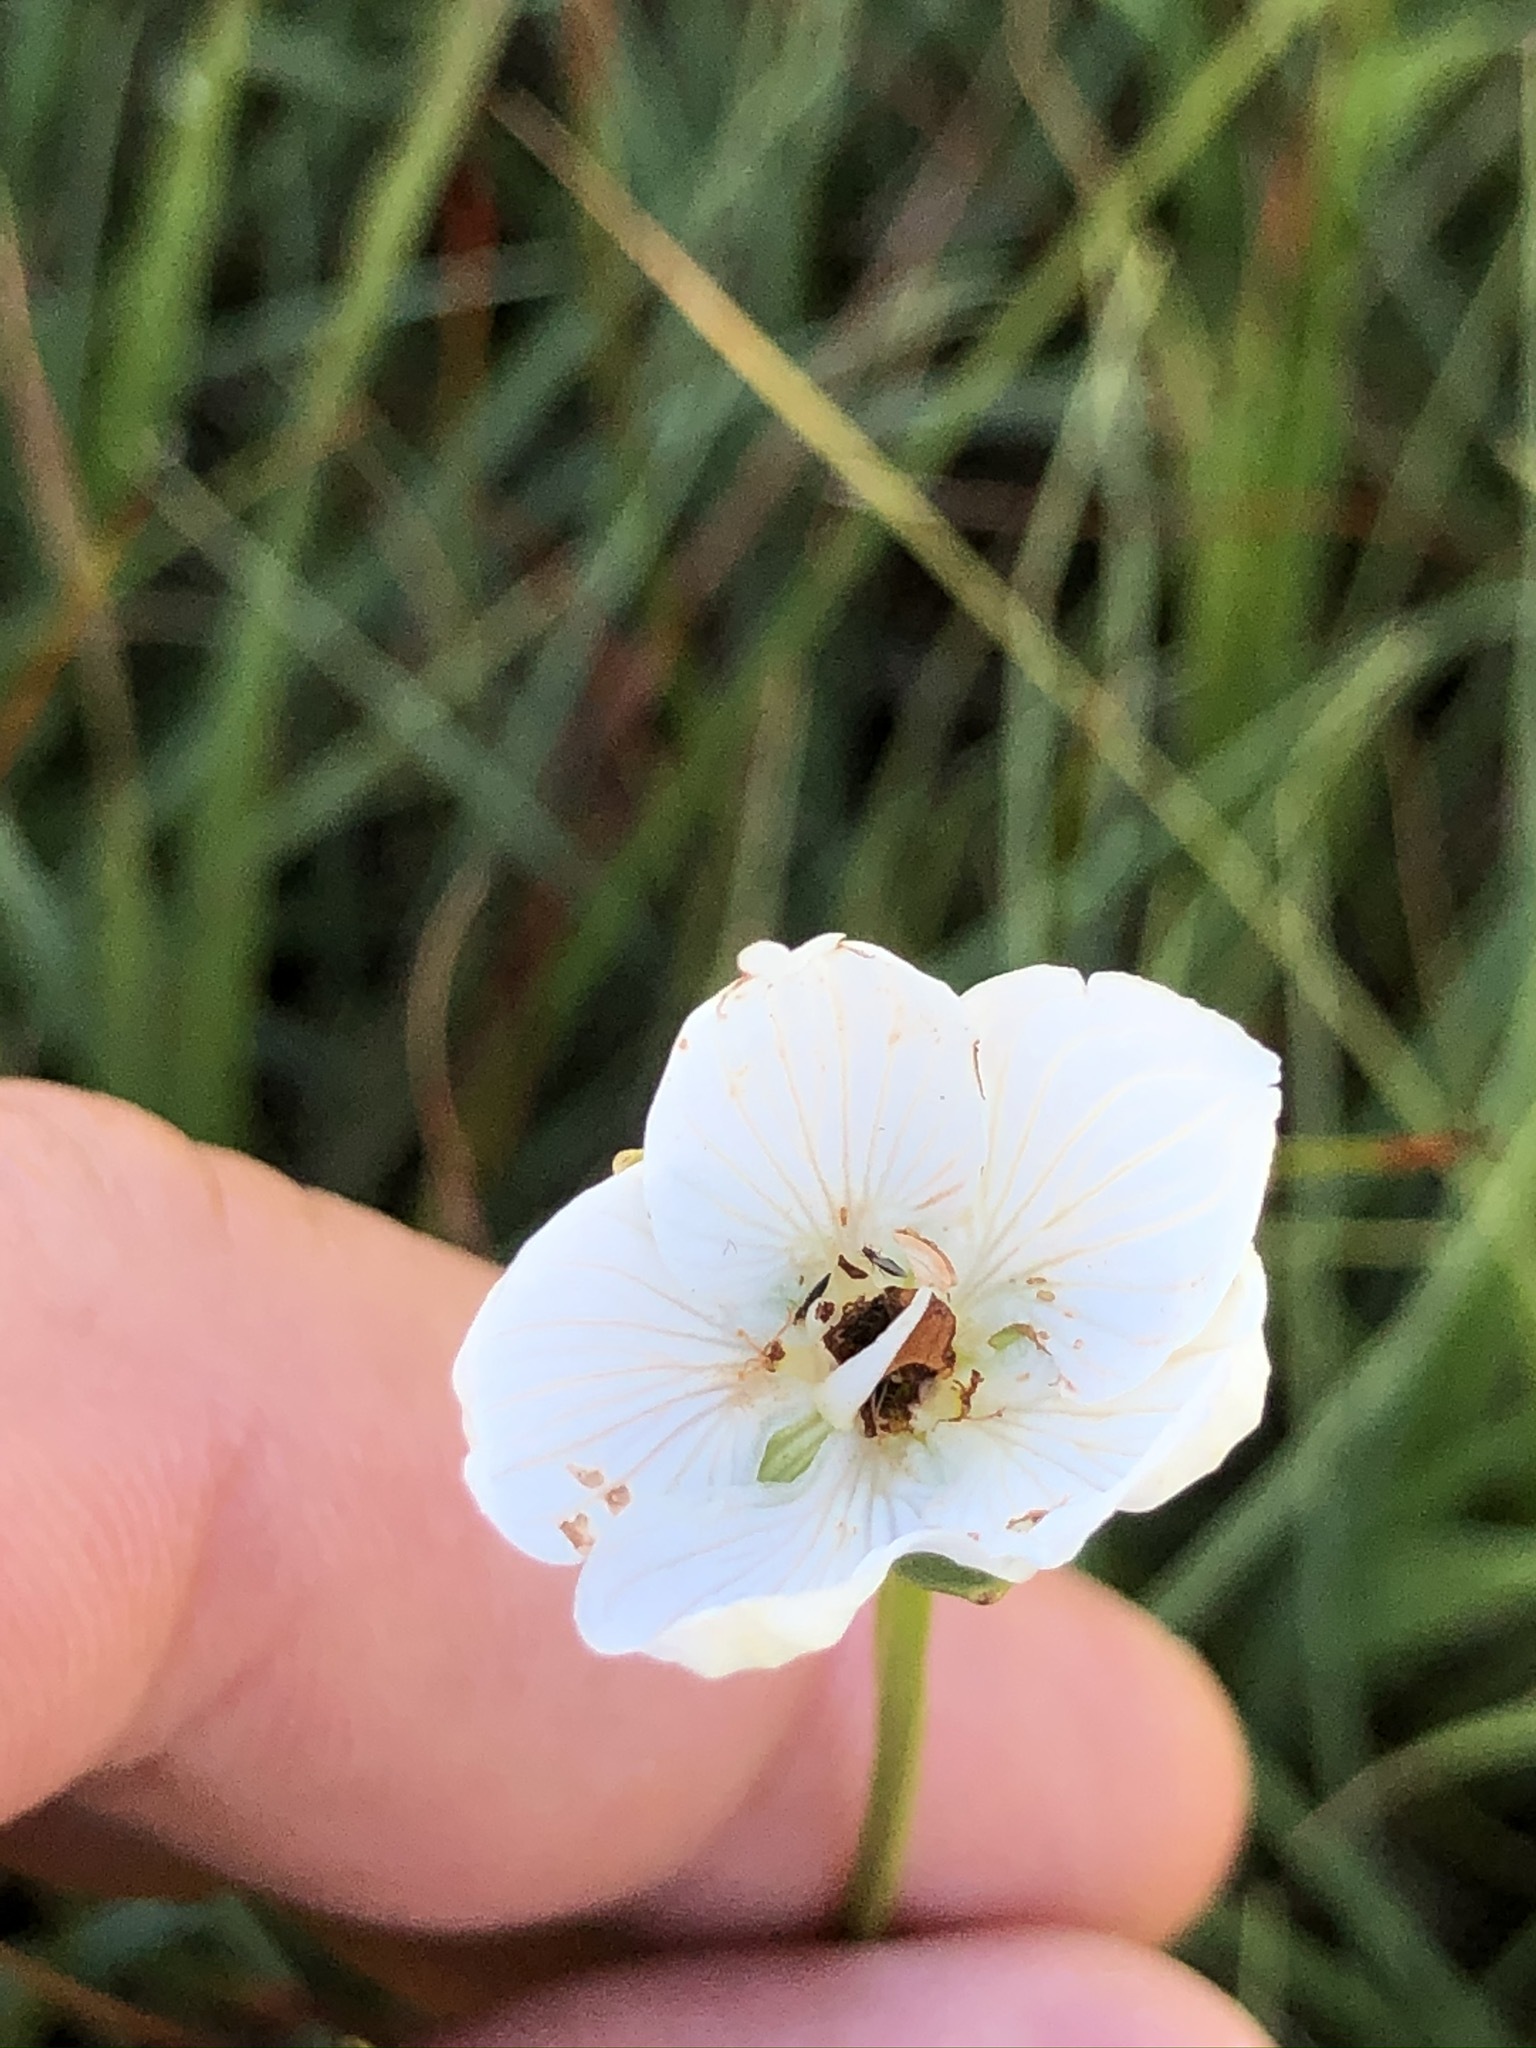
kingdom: Plantae
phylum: Tracheophyta
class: Magnoliopsida
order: Celastrales
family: Parnassiaceae
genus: Parnassia
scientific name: Parnassia palustris
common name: Grass-of-parnassus
